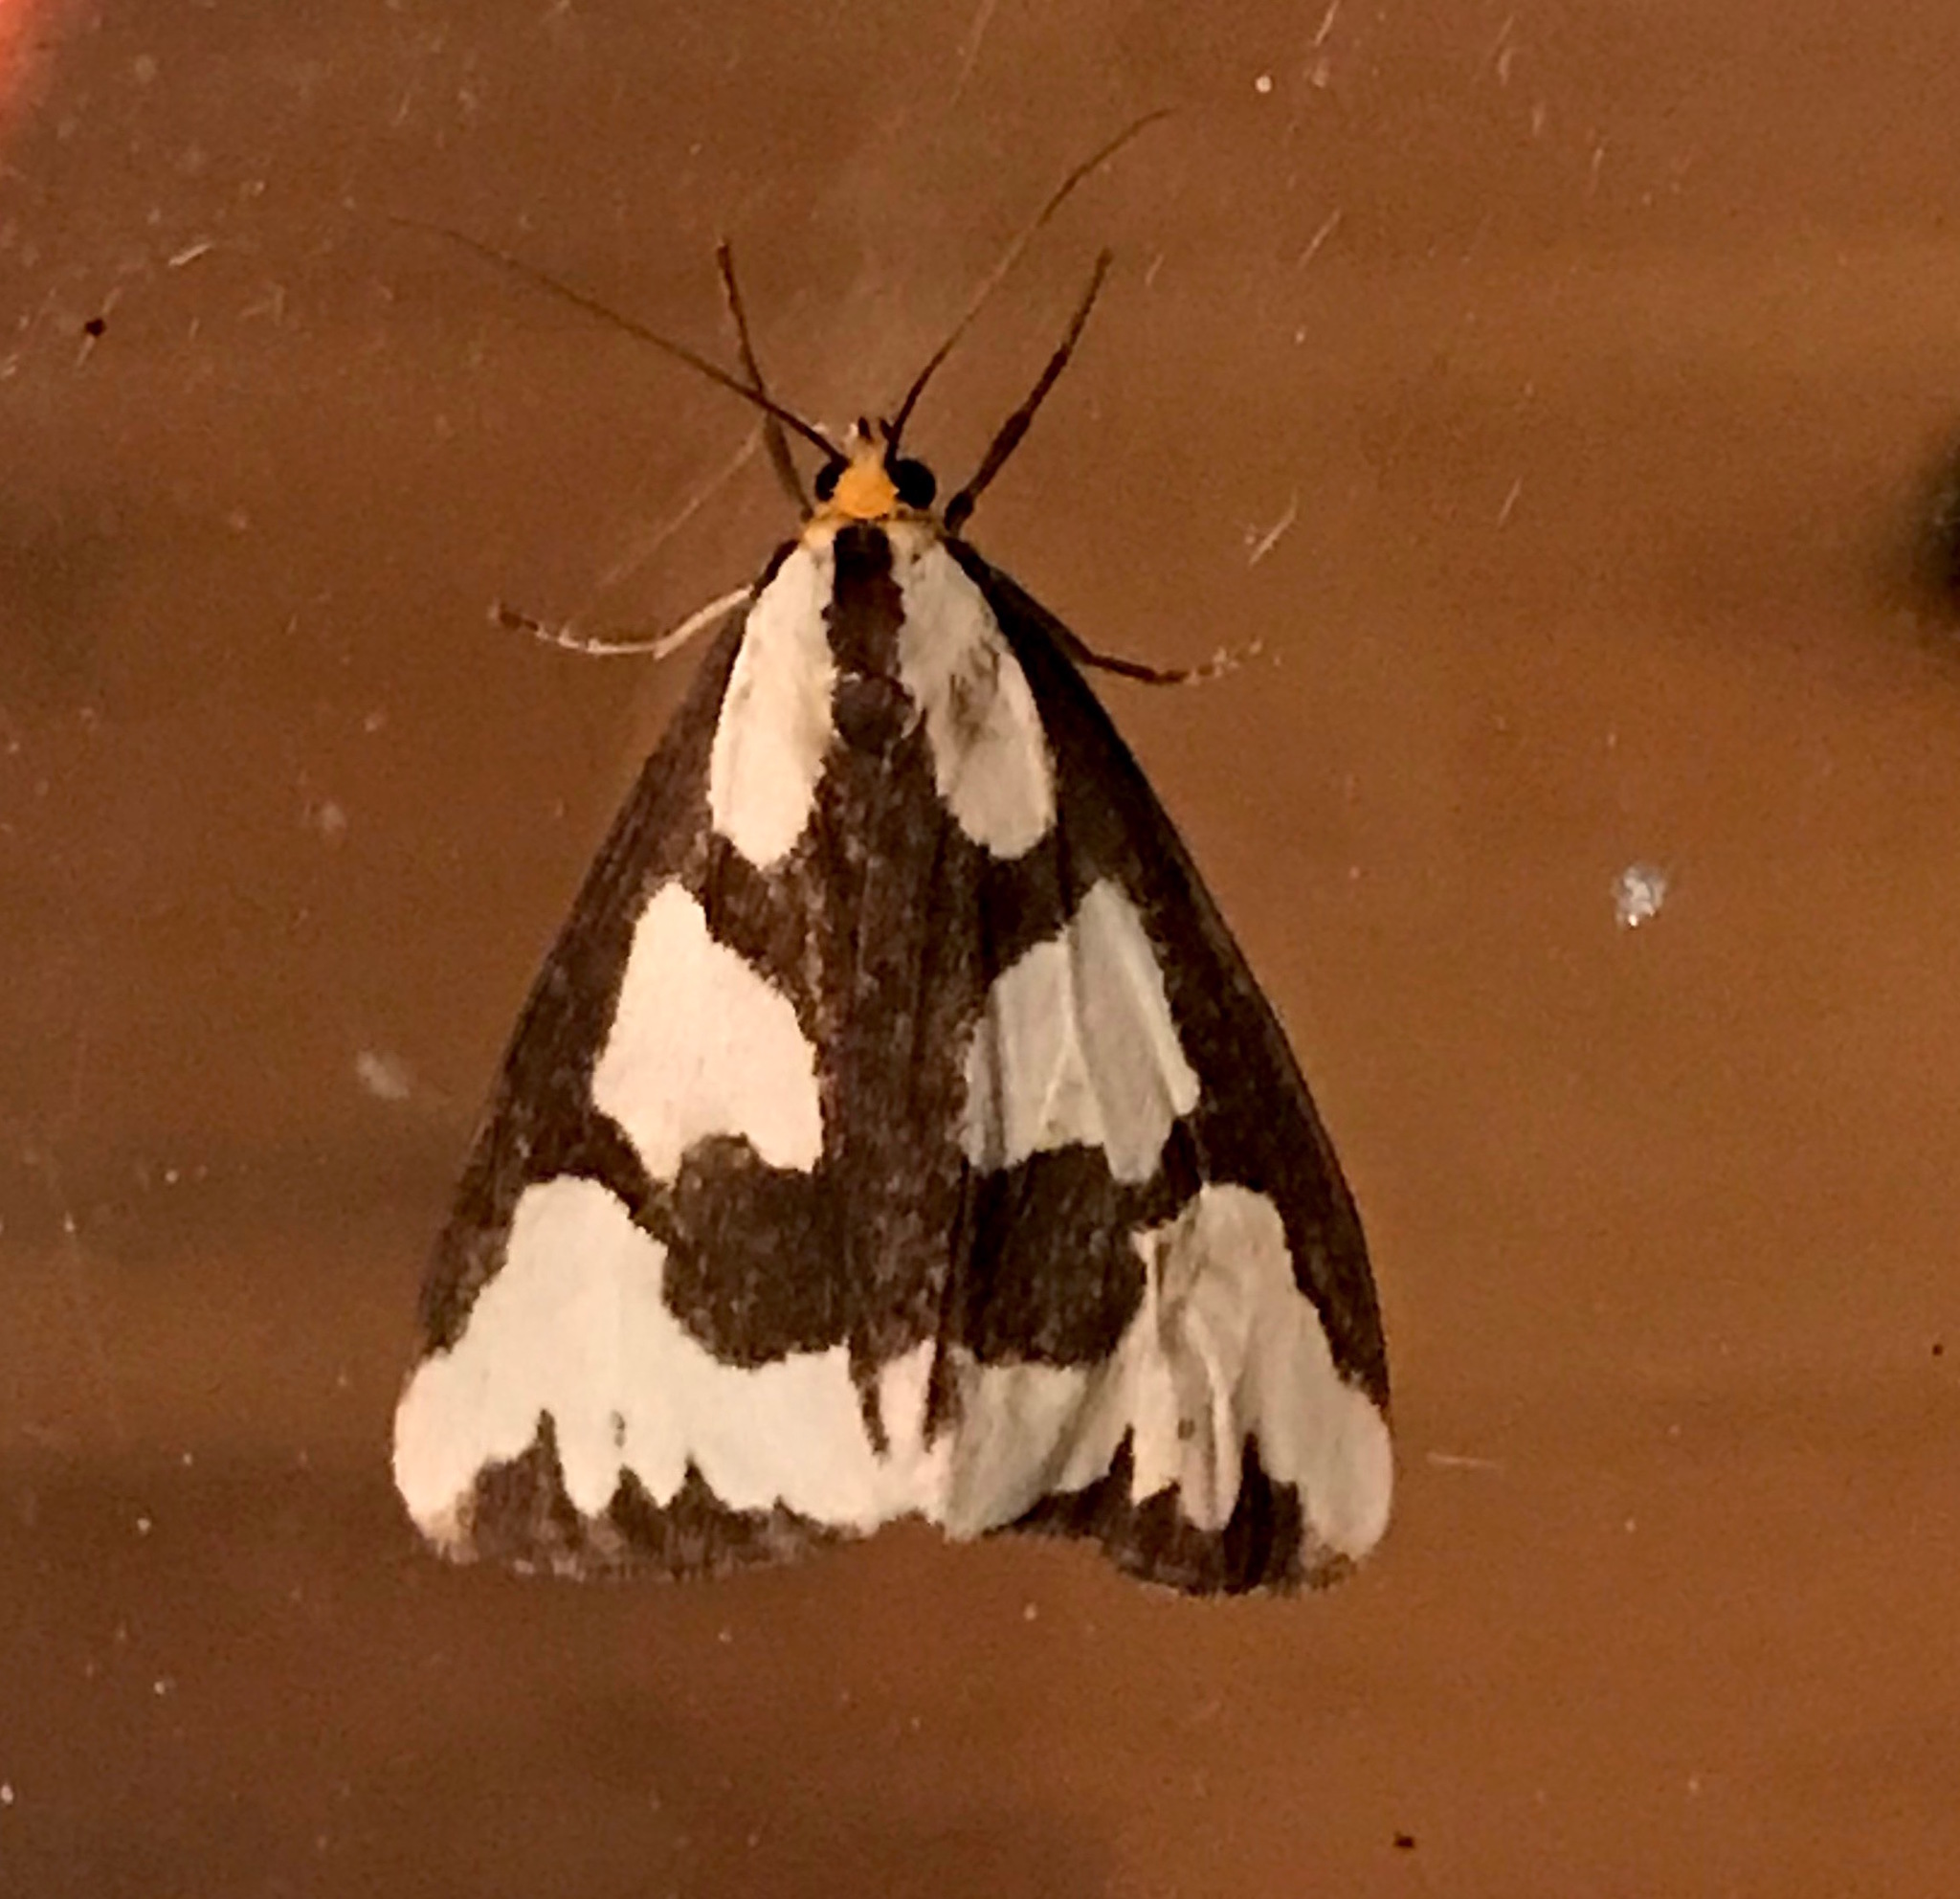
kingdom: Animalia
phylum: Arthropoda
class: Insecta
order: Lepidoptera
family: Erebidae
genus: Haploa
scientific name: Haploa confusa
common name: Confused haploa moth
